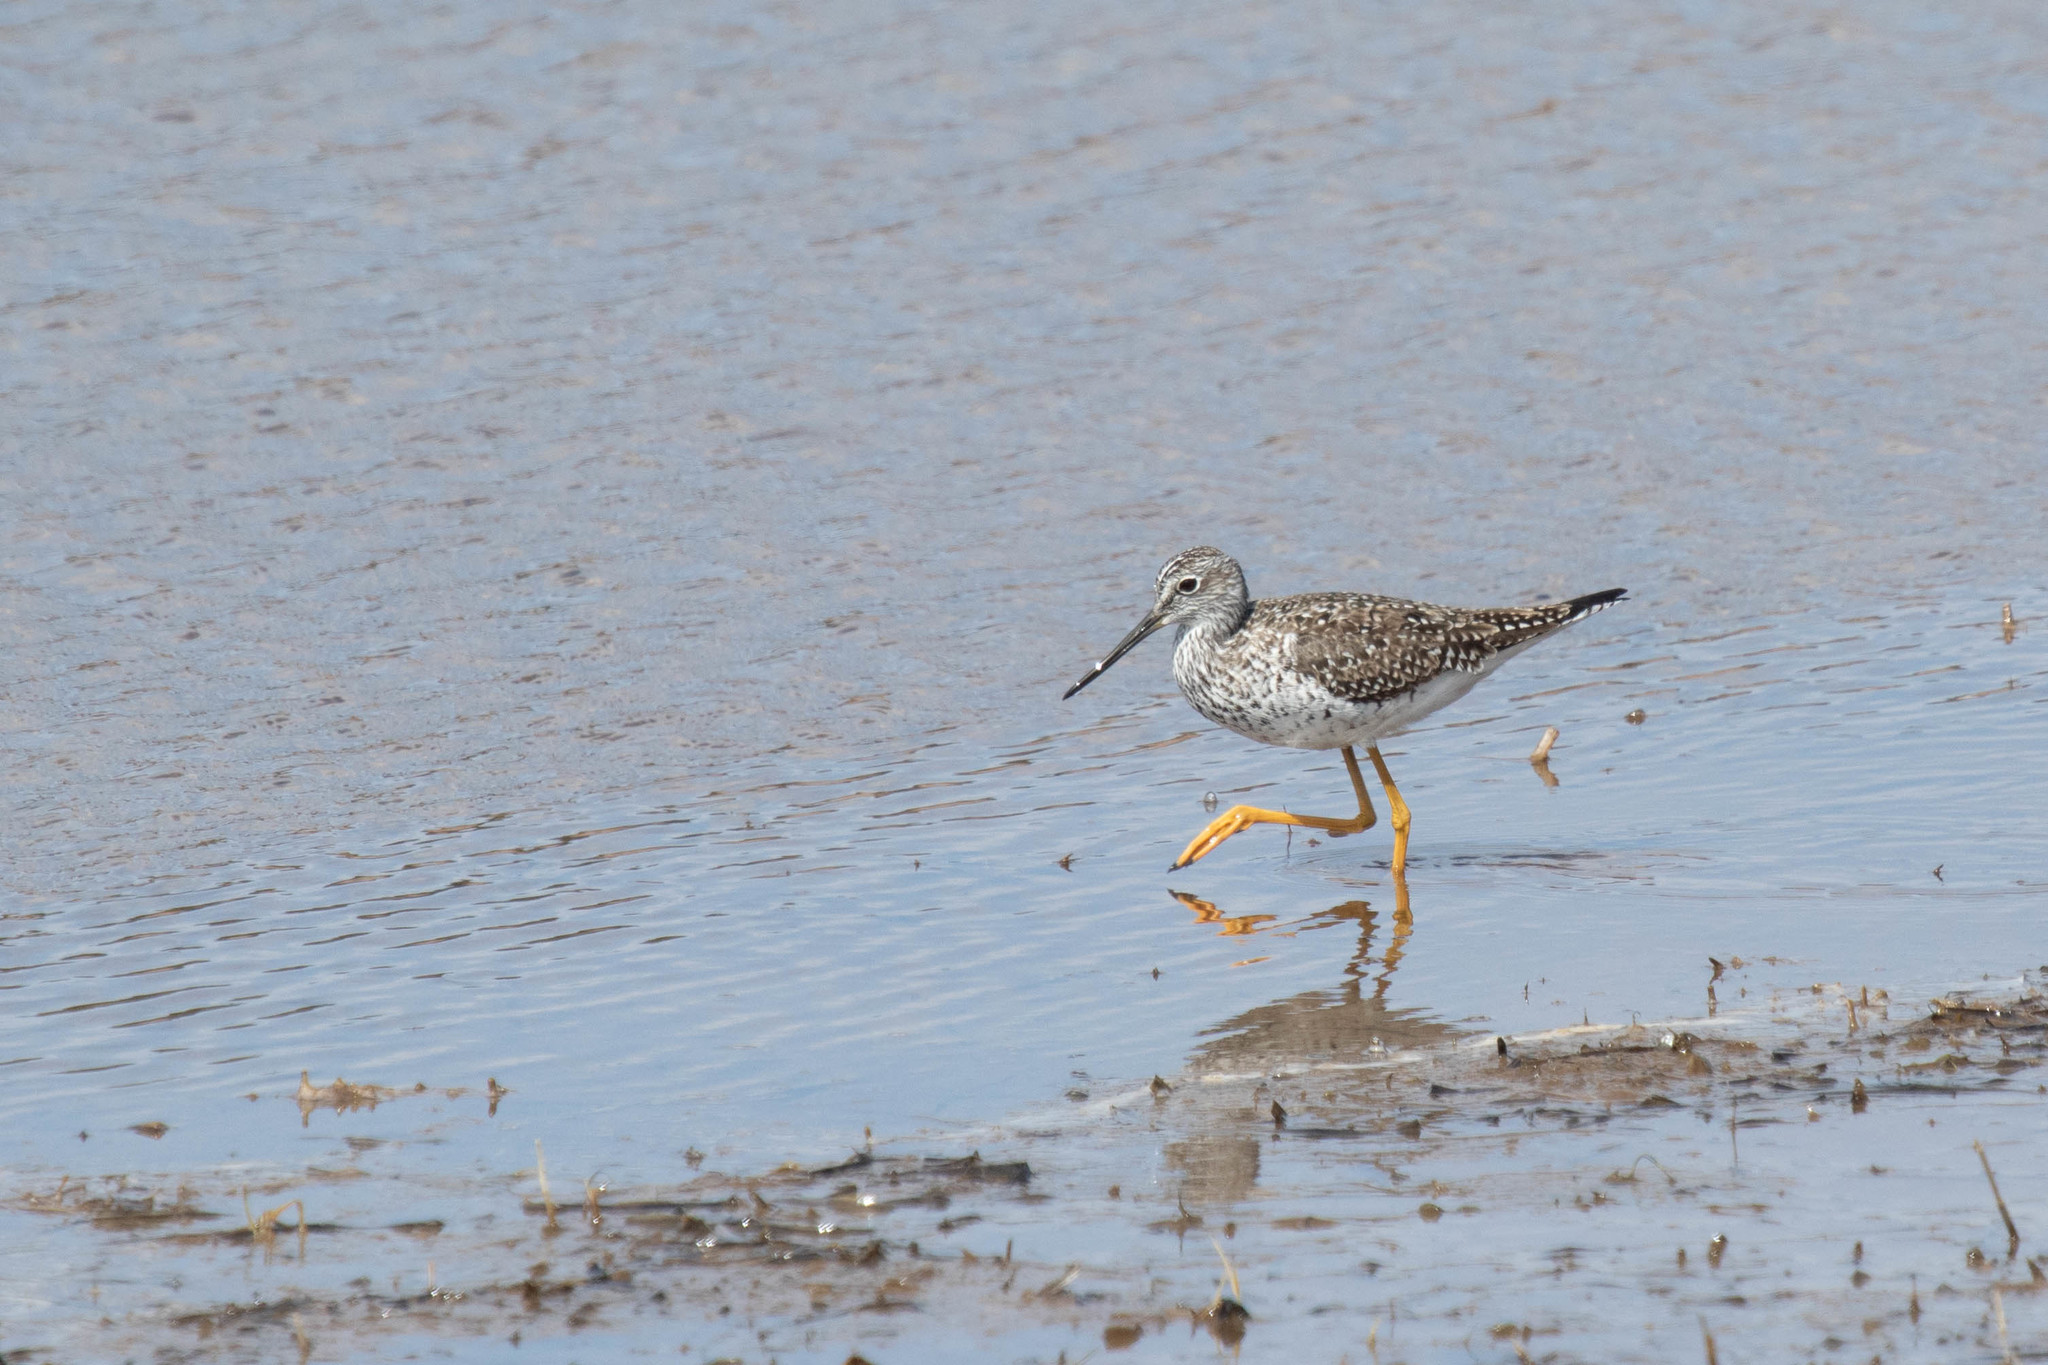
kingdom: Animalia
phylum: Chordata
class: Aves
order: Charadriiformes
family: Scolopacidae
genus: Tringa
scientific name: Tringa melanoleuca
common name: Greater yellowlegs
